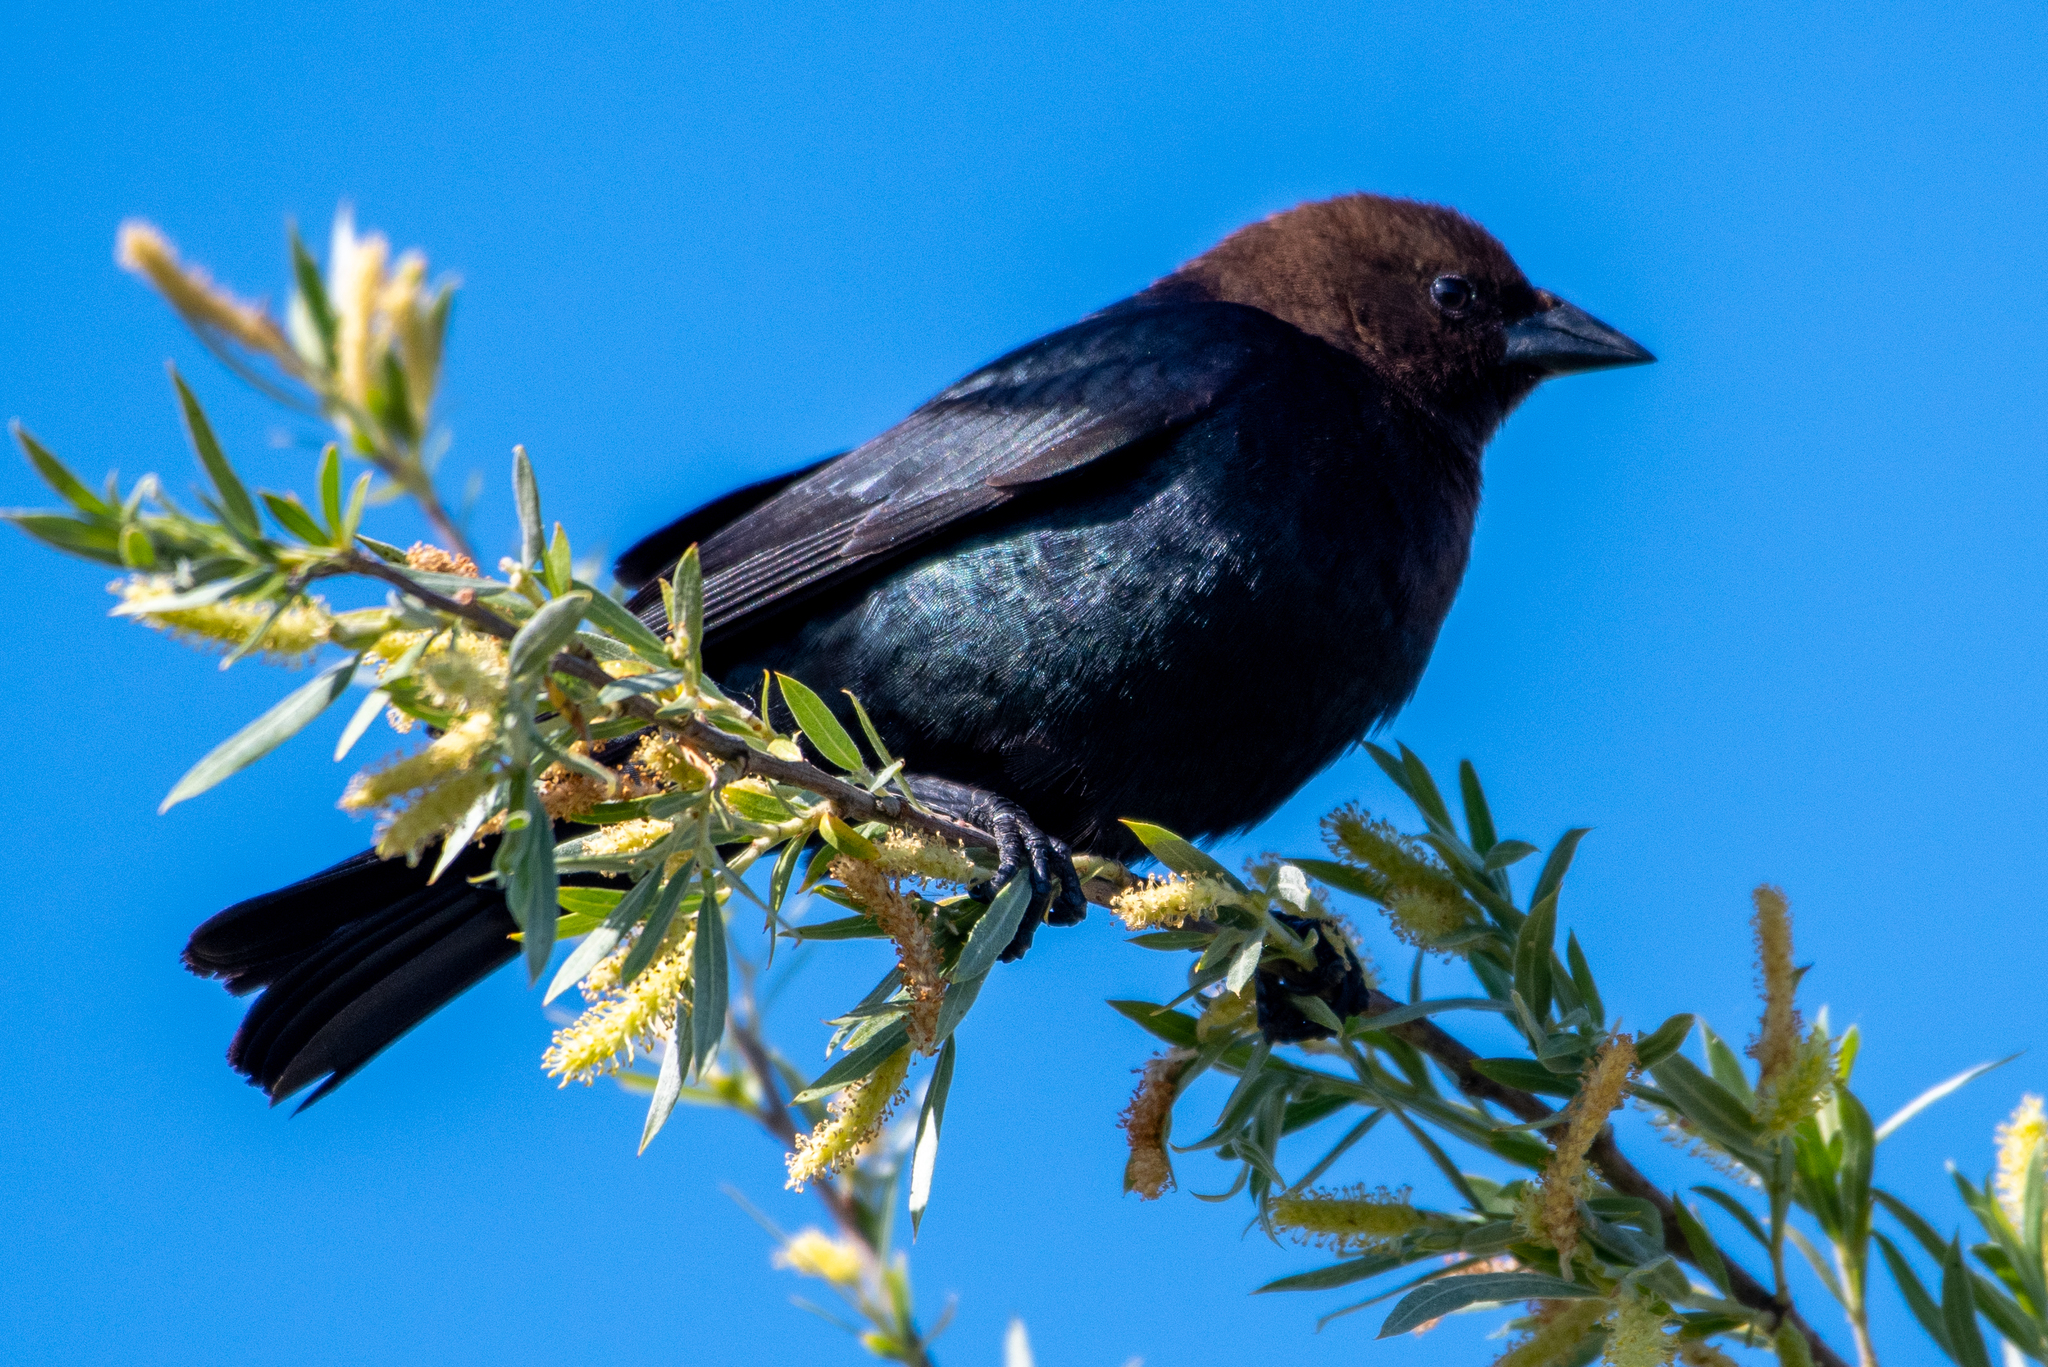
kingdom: Animalia
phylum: Chordata
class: Aves
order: Passeriformes
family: Icteridae
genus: Molothrus
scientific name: Molothrus ater
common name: Brown-headed cowbird
